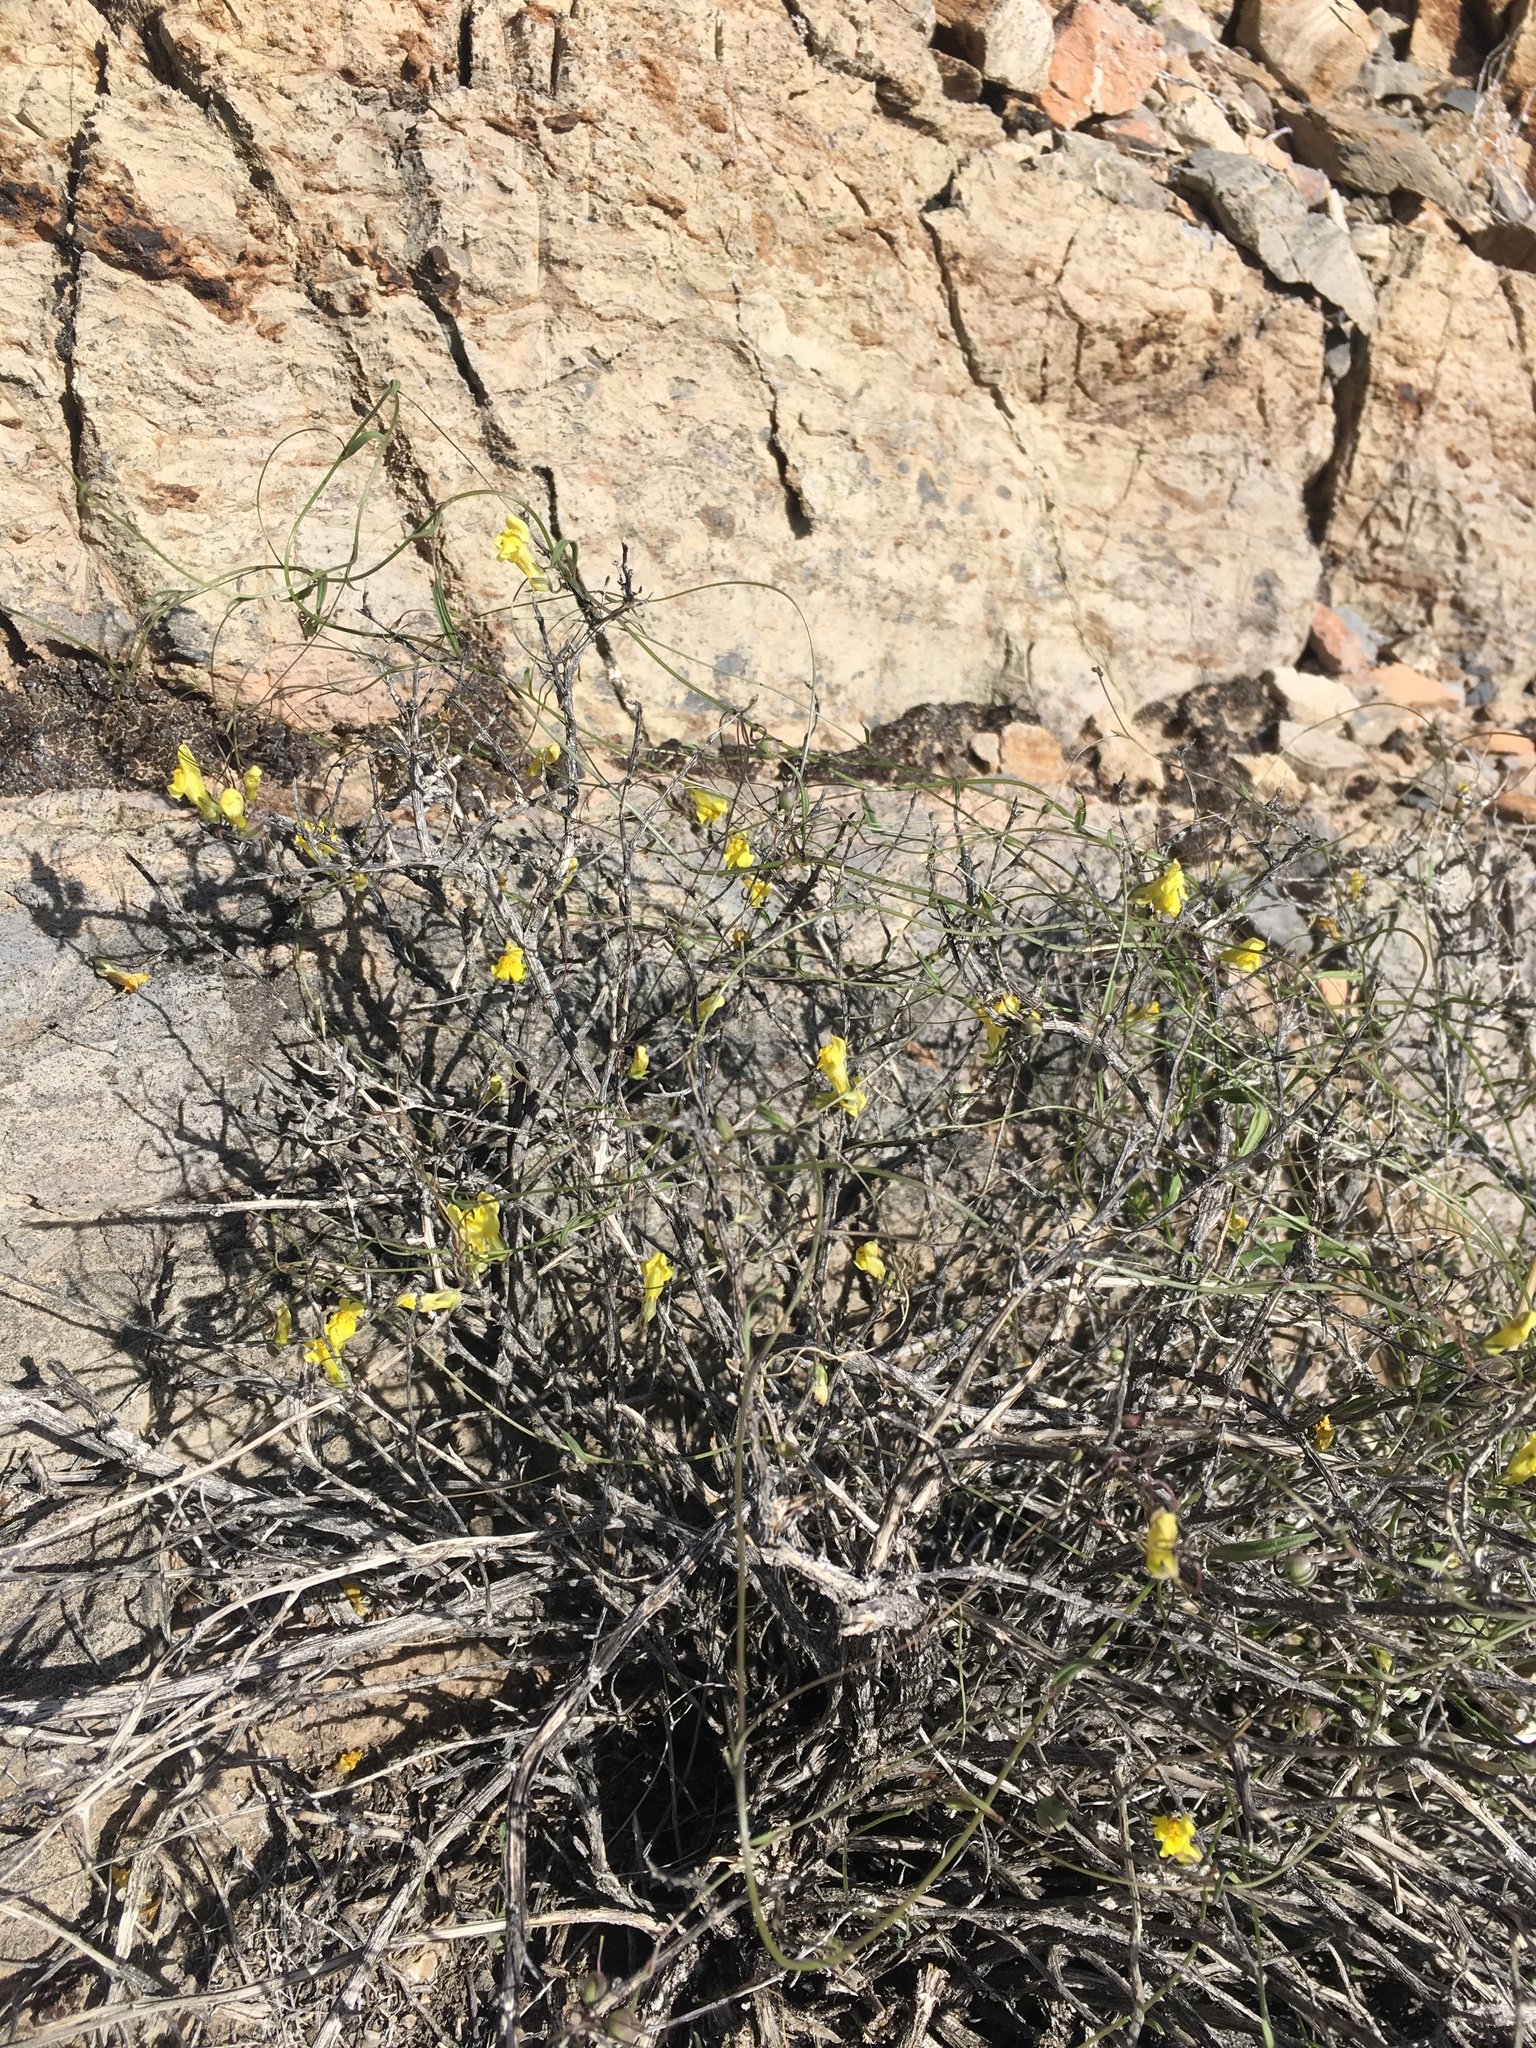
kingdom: Plantae
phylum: Tracheophyta
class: Magnoliopsida
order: Lamiales
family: Plantaginaceae
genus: Neogaerrhinum
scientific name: Neogaerrhinum filipes
